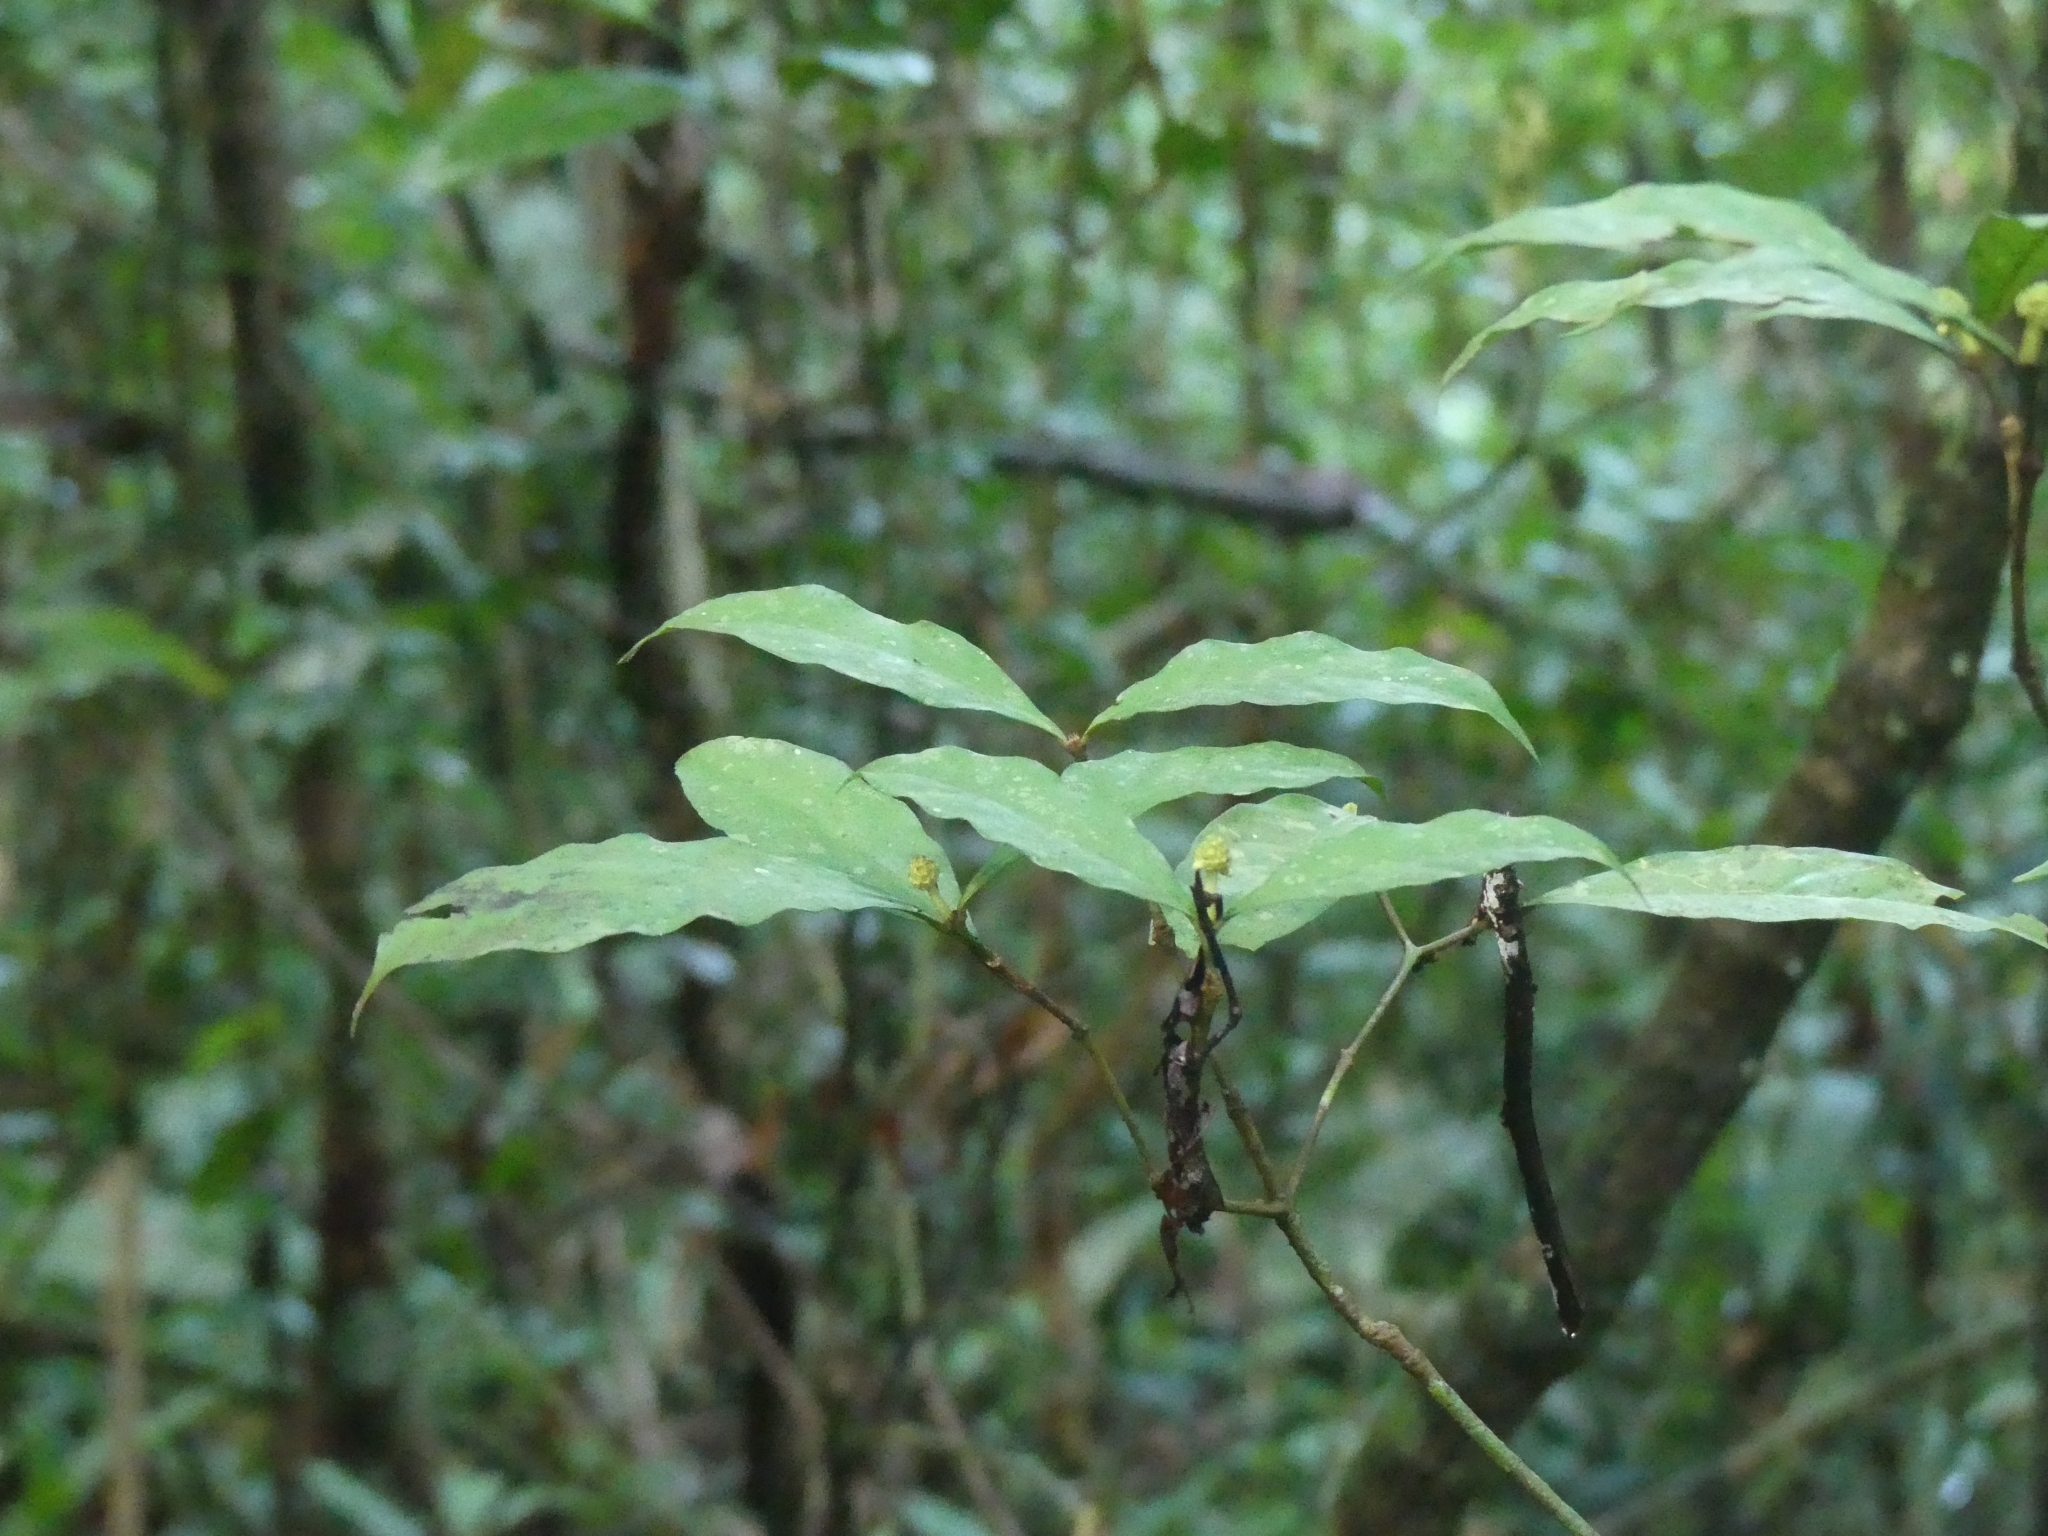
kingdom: Plantae
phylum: Tracheophyta
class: Magnoliopsida
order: Gentianales
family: Rubiaceae
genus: Eumachia
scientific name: Eumachia guianensis
